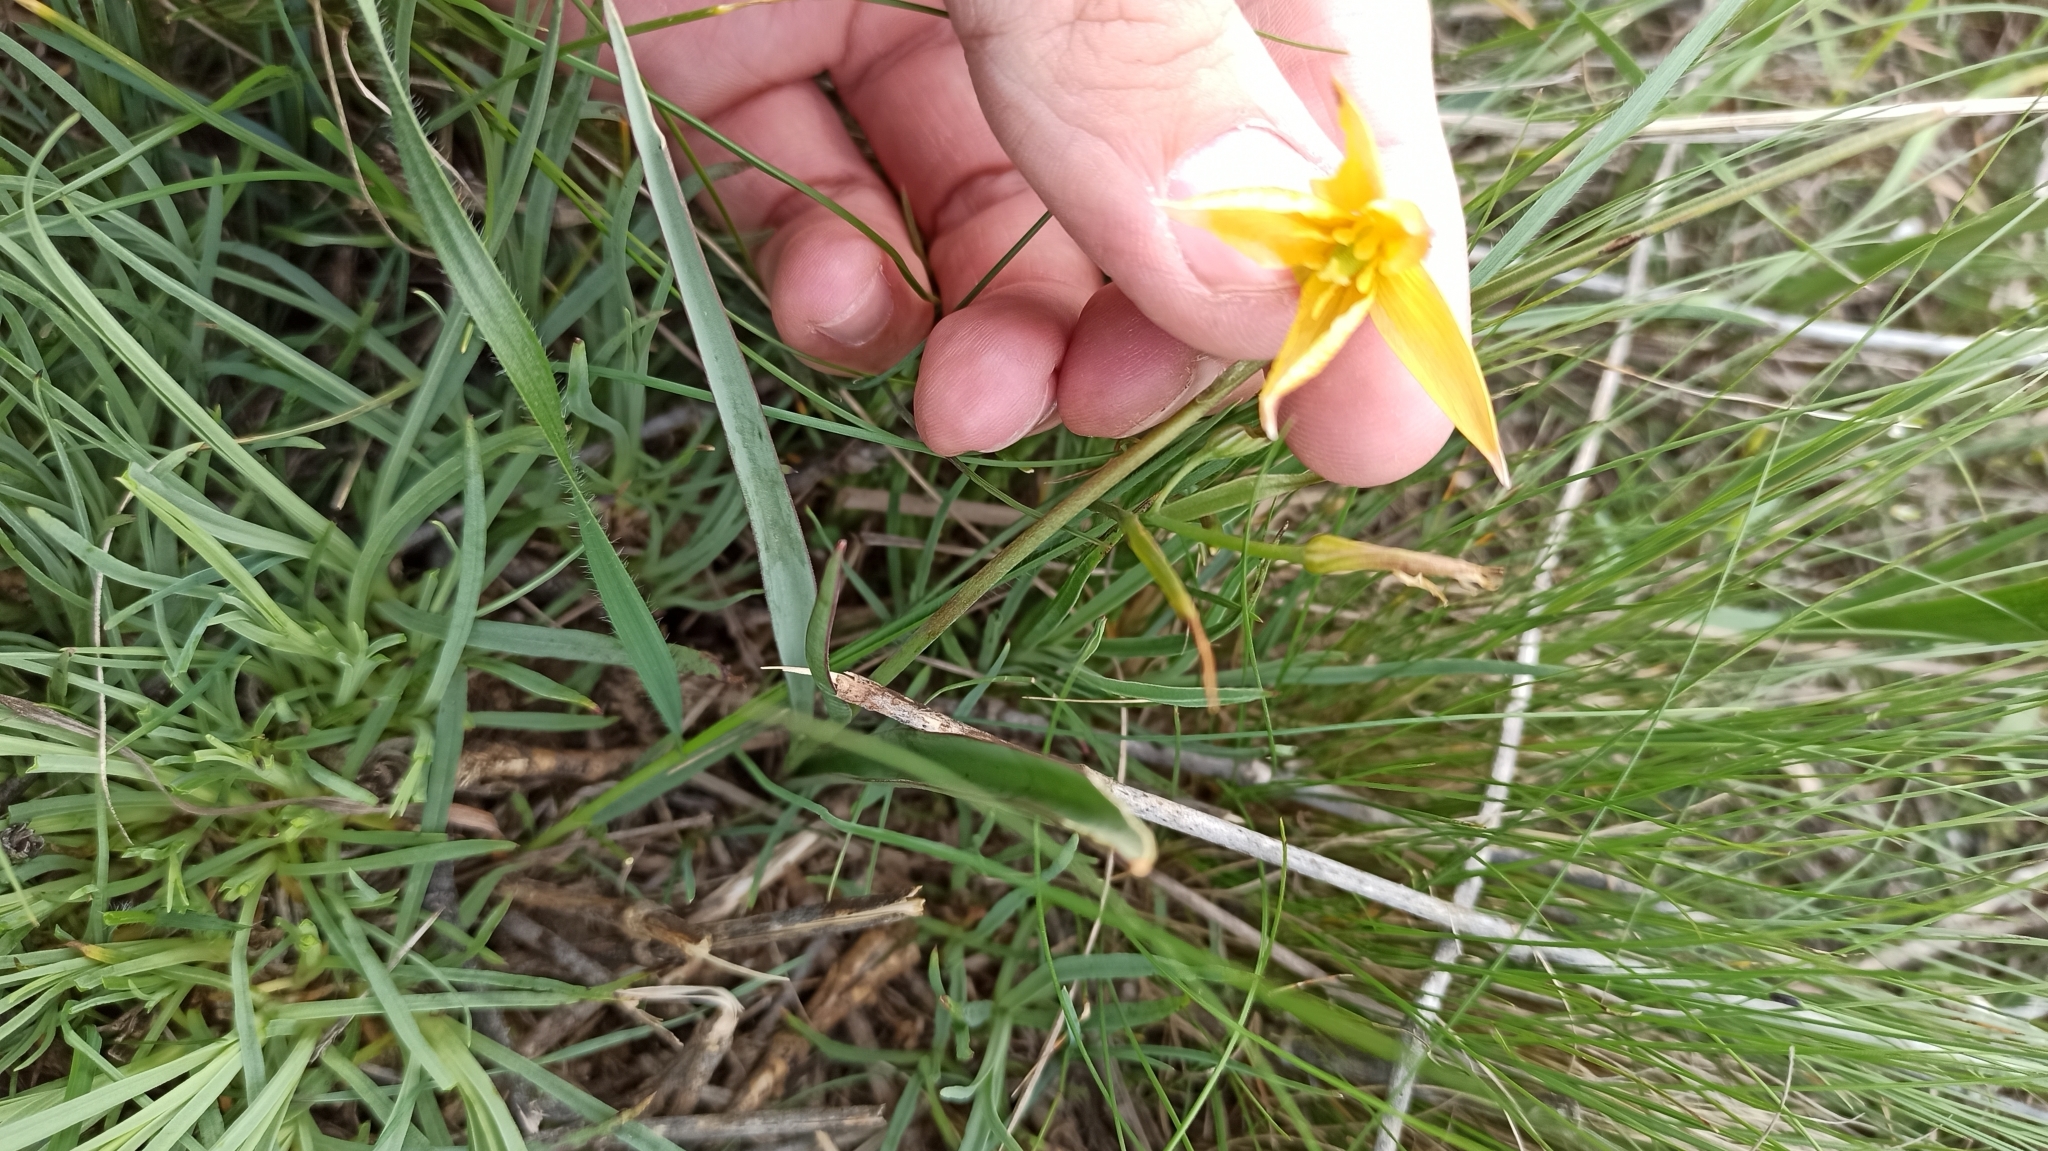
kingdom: Plantae
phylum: Tracheophyta
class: Liliopsida
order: Liliales
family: Liliaceae
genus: Tulipa
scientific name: Tulipa sylvestris
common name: Wild tulip
